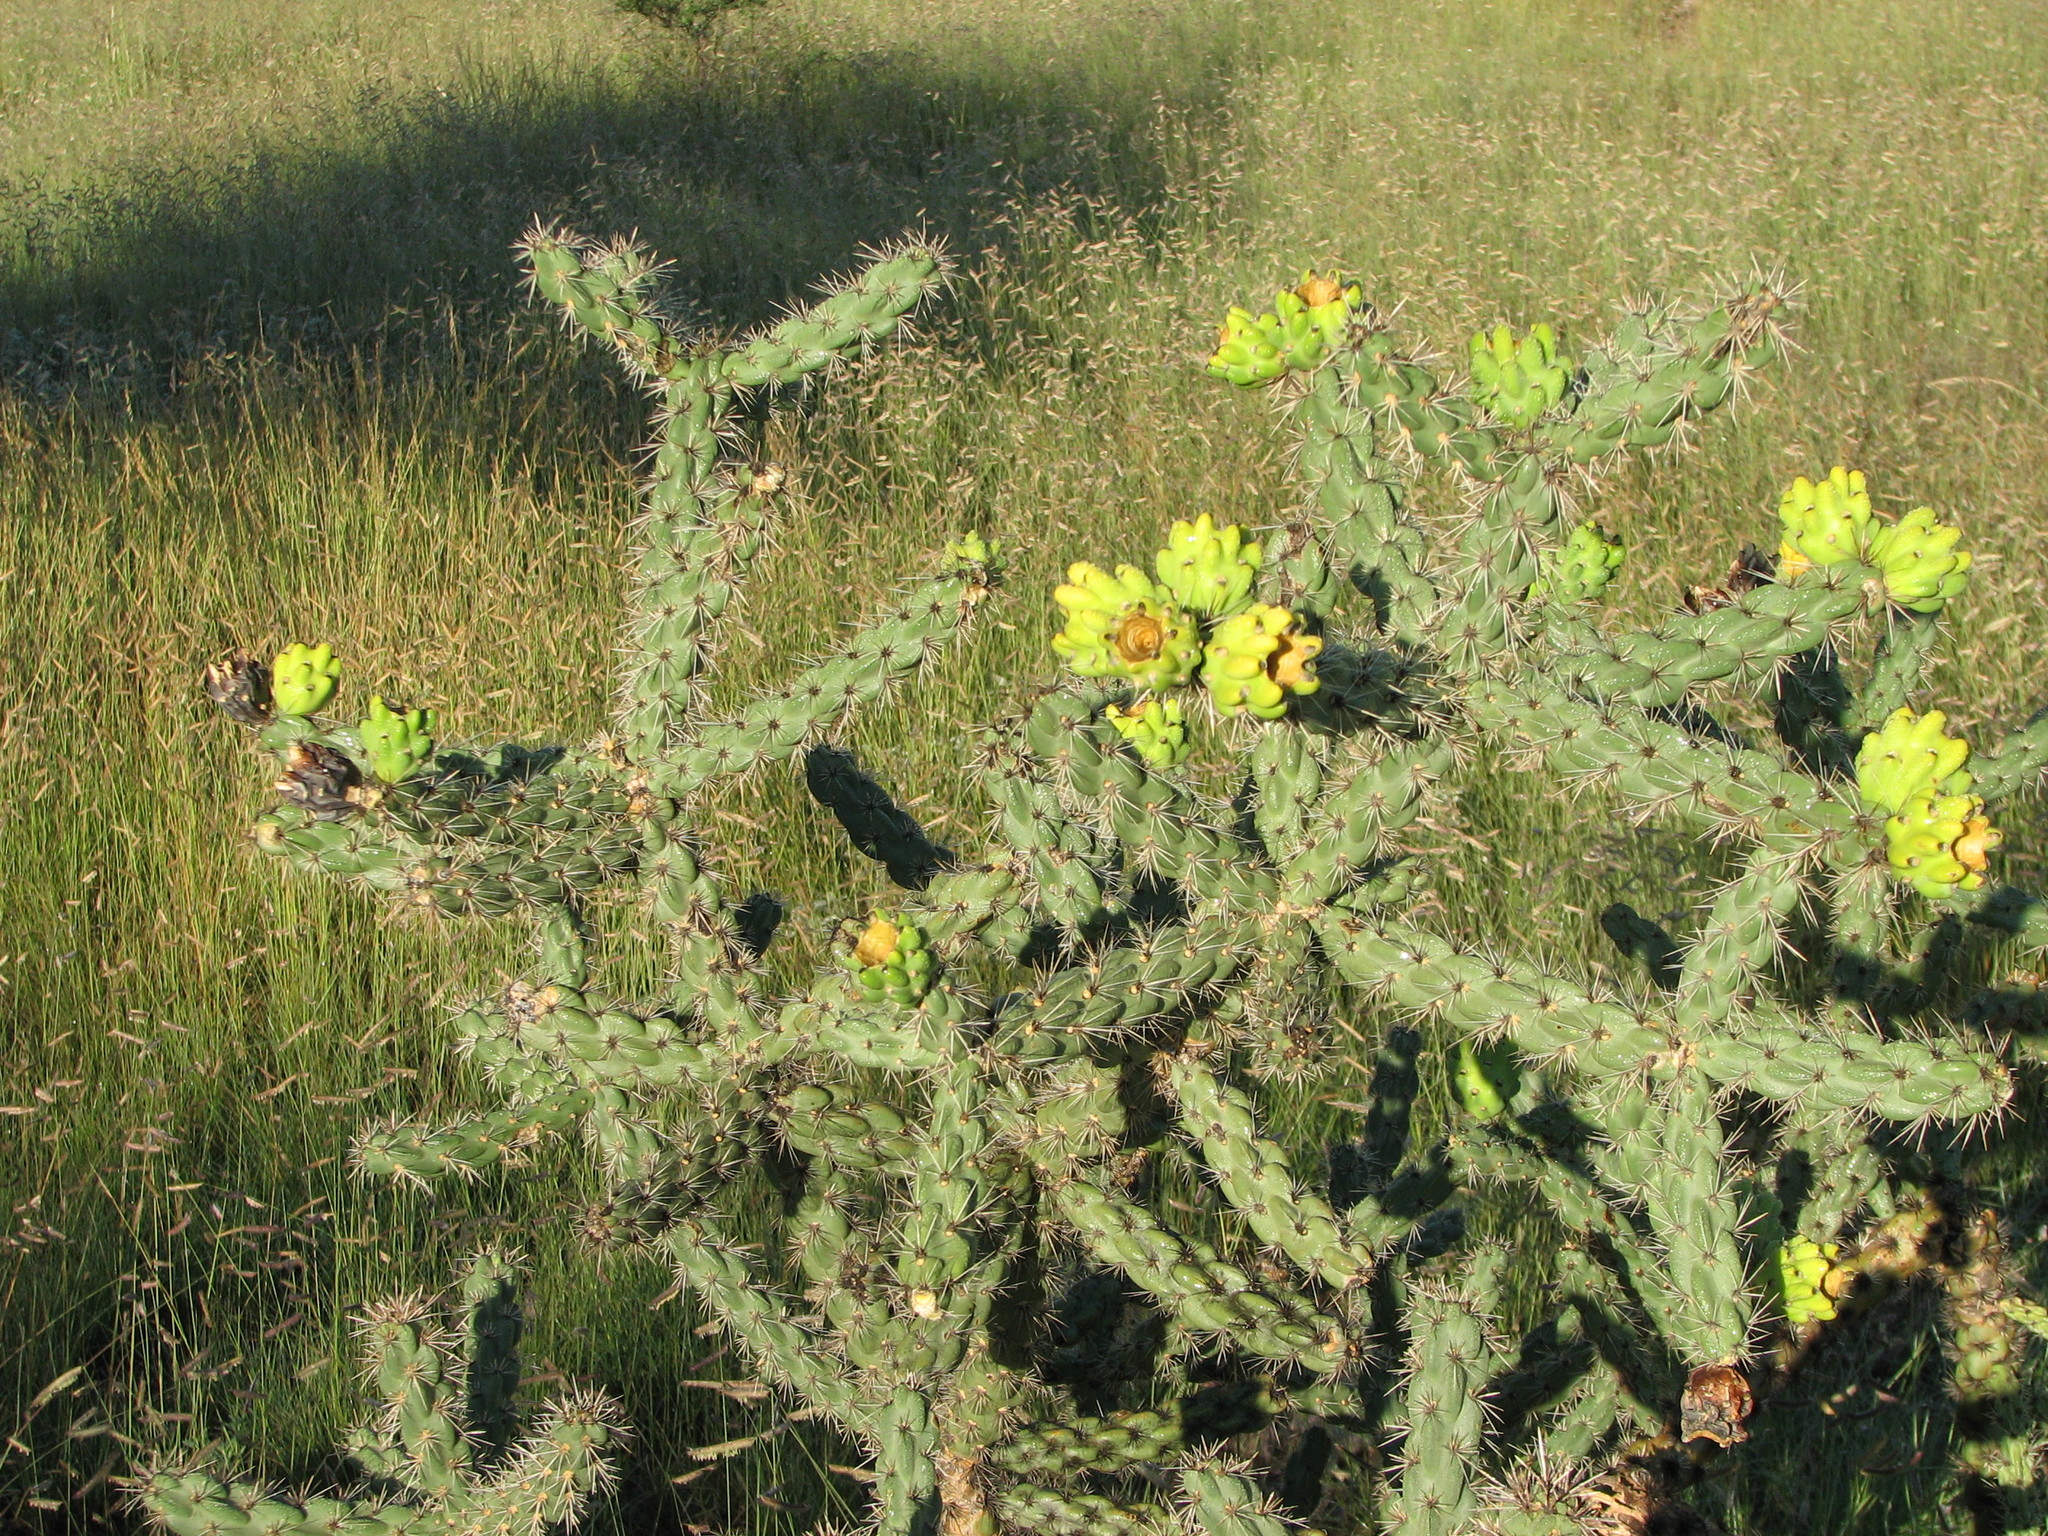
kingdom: Plantae
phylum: Tracheophyta
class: Magnoliopsida
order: Caryophyllales
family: Cactaceae
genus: Cylindropuntia
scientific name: Cylindropuntia imbricata
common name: Candelabrum cactus
